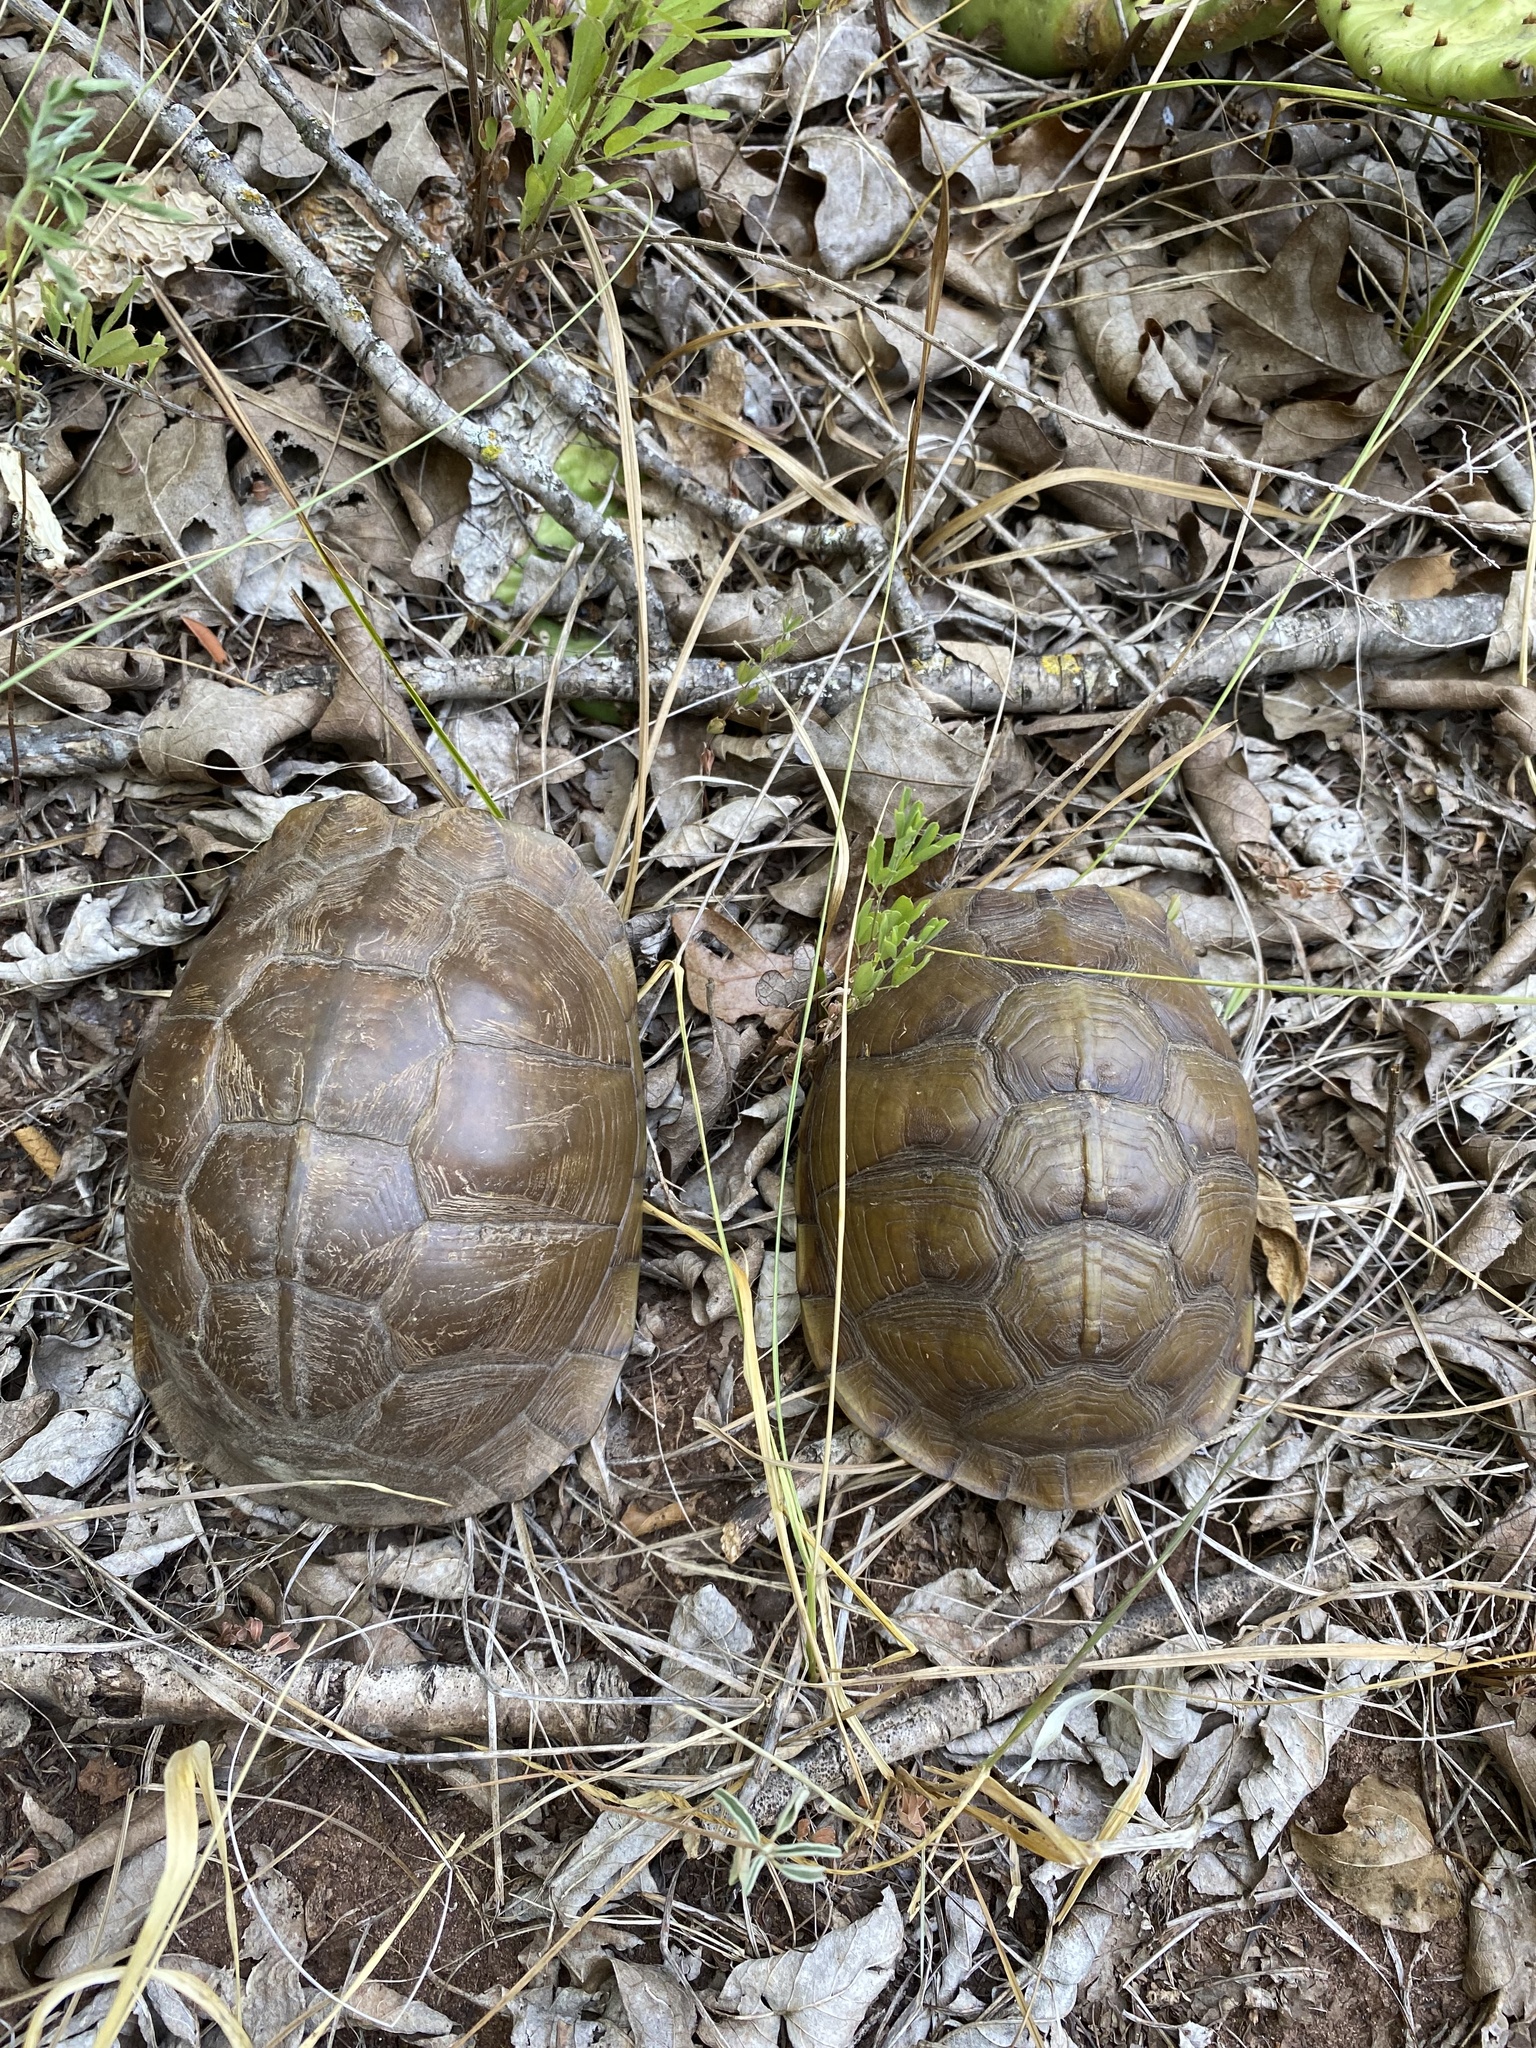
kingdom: Animalia
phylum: Chordata
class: Testudines
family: Emydidae
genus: Terrapene
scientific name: Terrapene carolina
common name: Common box turtle
